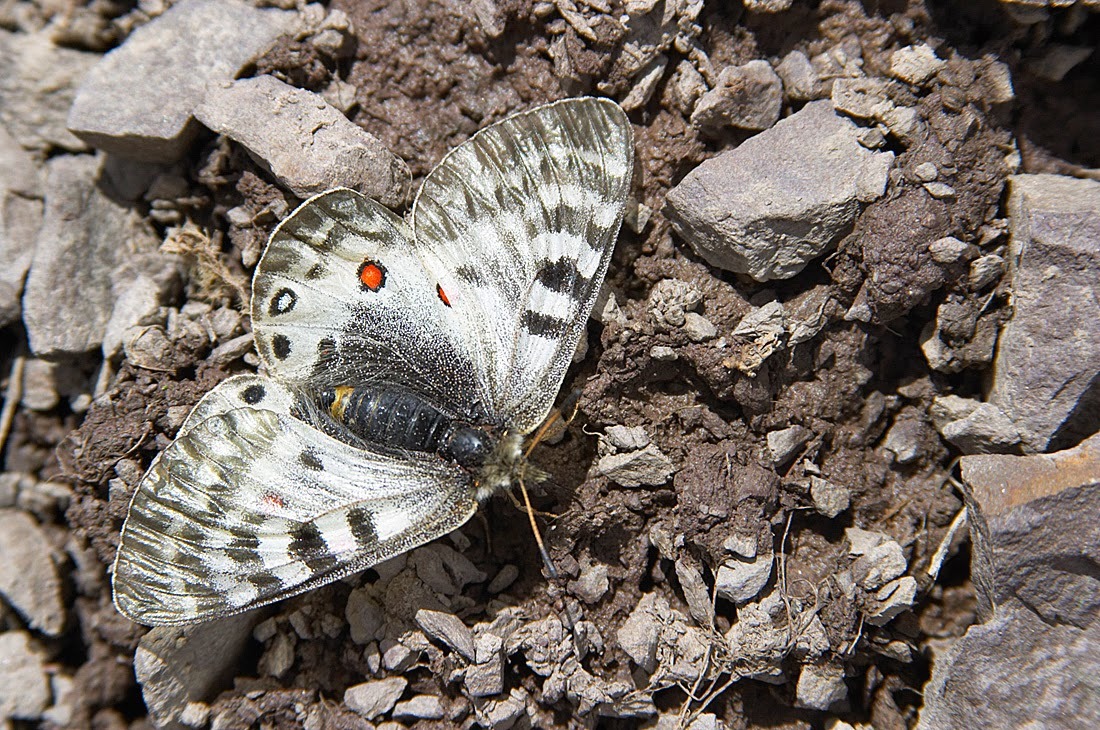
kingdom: Animalia
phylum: Arthropoda
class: Insecta
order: Lepidoptera
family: Papilionidae
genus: Parnassius
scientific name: Parnassius delphius
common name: Banded apollo
